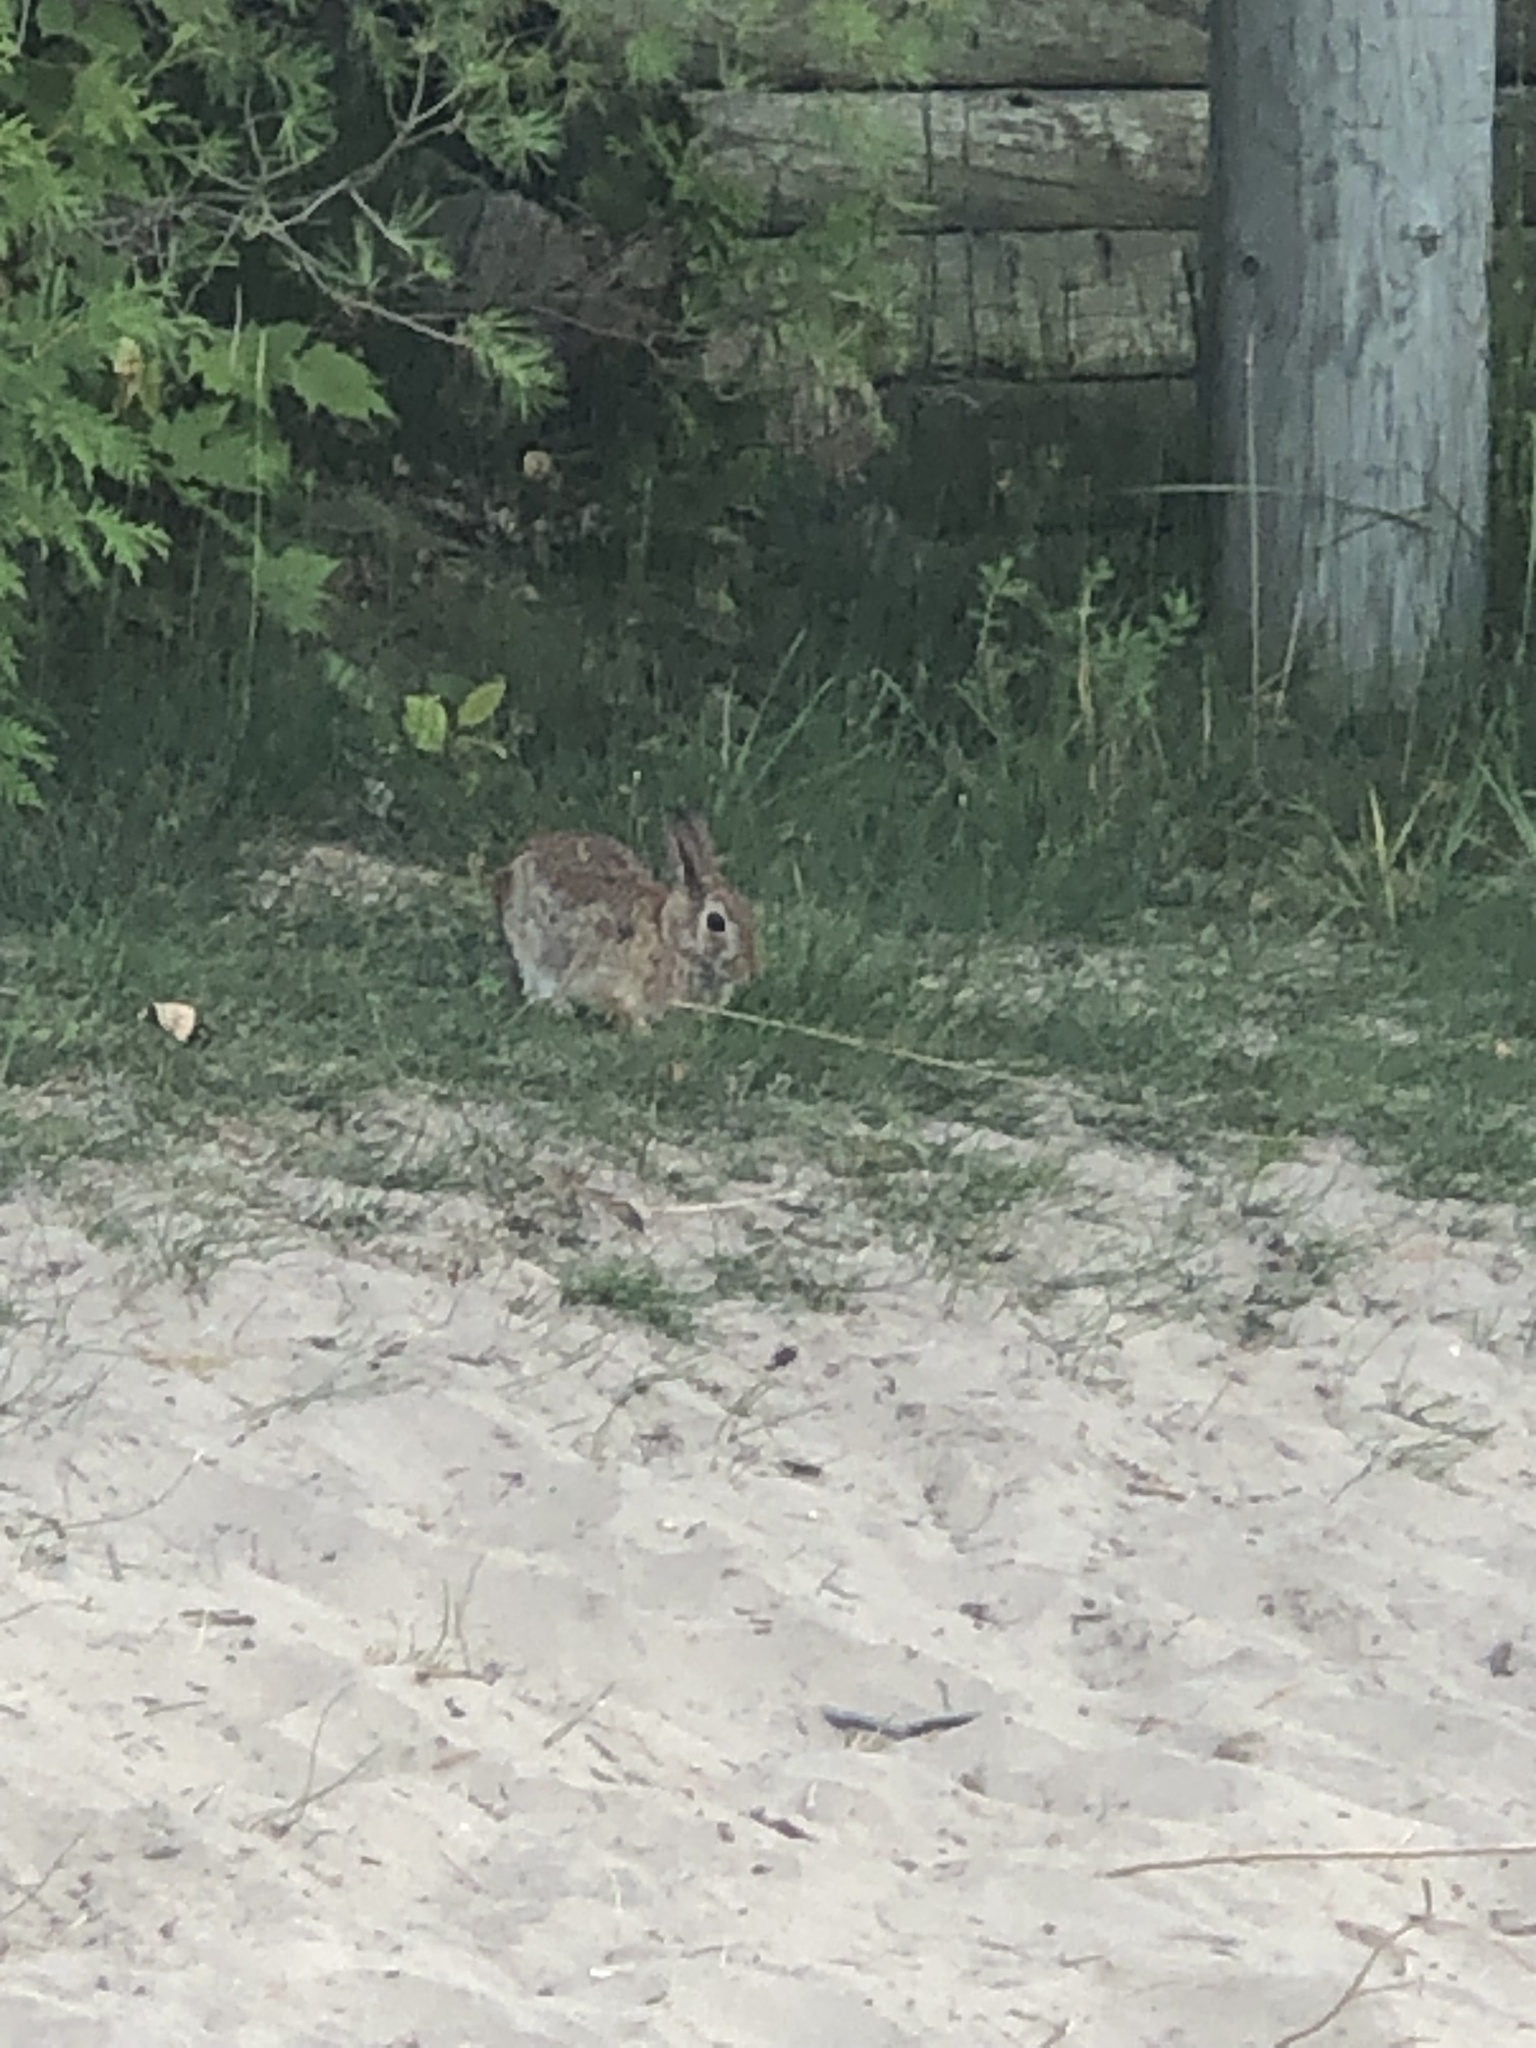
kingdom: Animalia
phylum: Chordata
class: Mammalia
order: Lagomorpha
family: Leporidae
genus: Sylvilagus
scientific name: Sylvilagus floridanus
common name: Eastern cottontail
